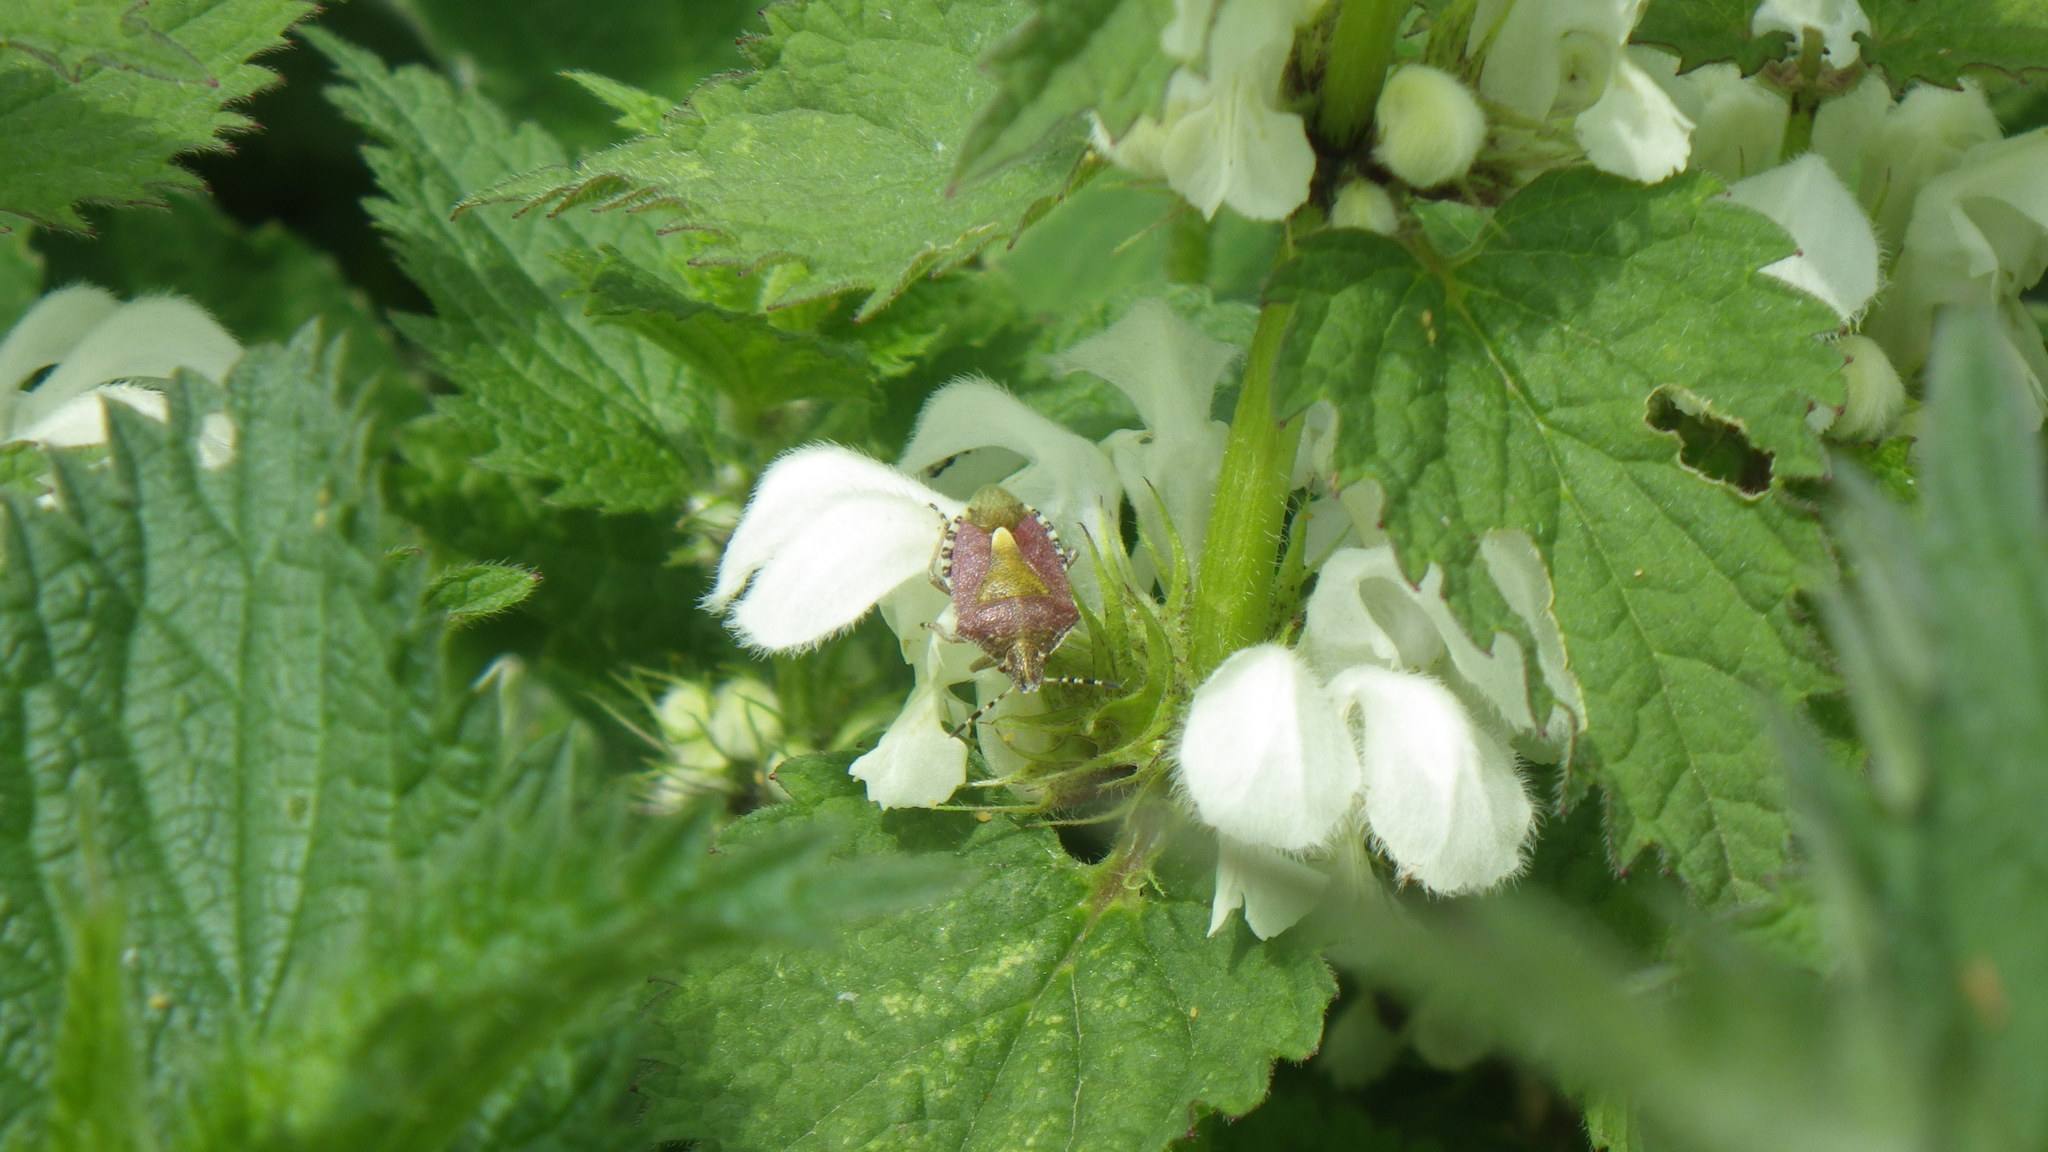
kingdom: Animalia
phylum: Arthropoda
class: Insecta
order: Hemiptera
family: Pentatomidae
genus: Dolycoris
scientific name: Dolycoris baccarum
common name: Sloe bug
